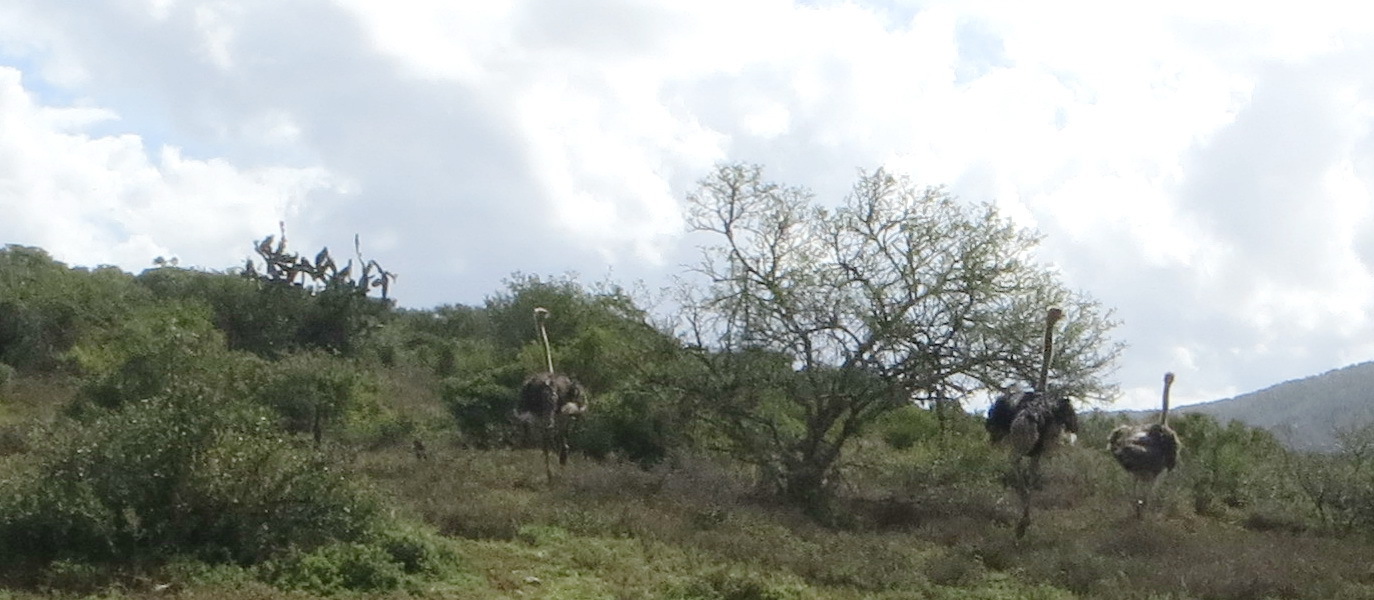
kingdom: Animalia
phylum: Chordata
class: Aves
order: Struthioniformes
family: Struthionidae
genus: Struthio
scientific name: Struthio camelus
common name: Common ostrich
